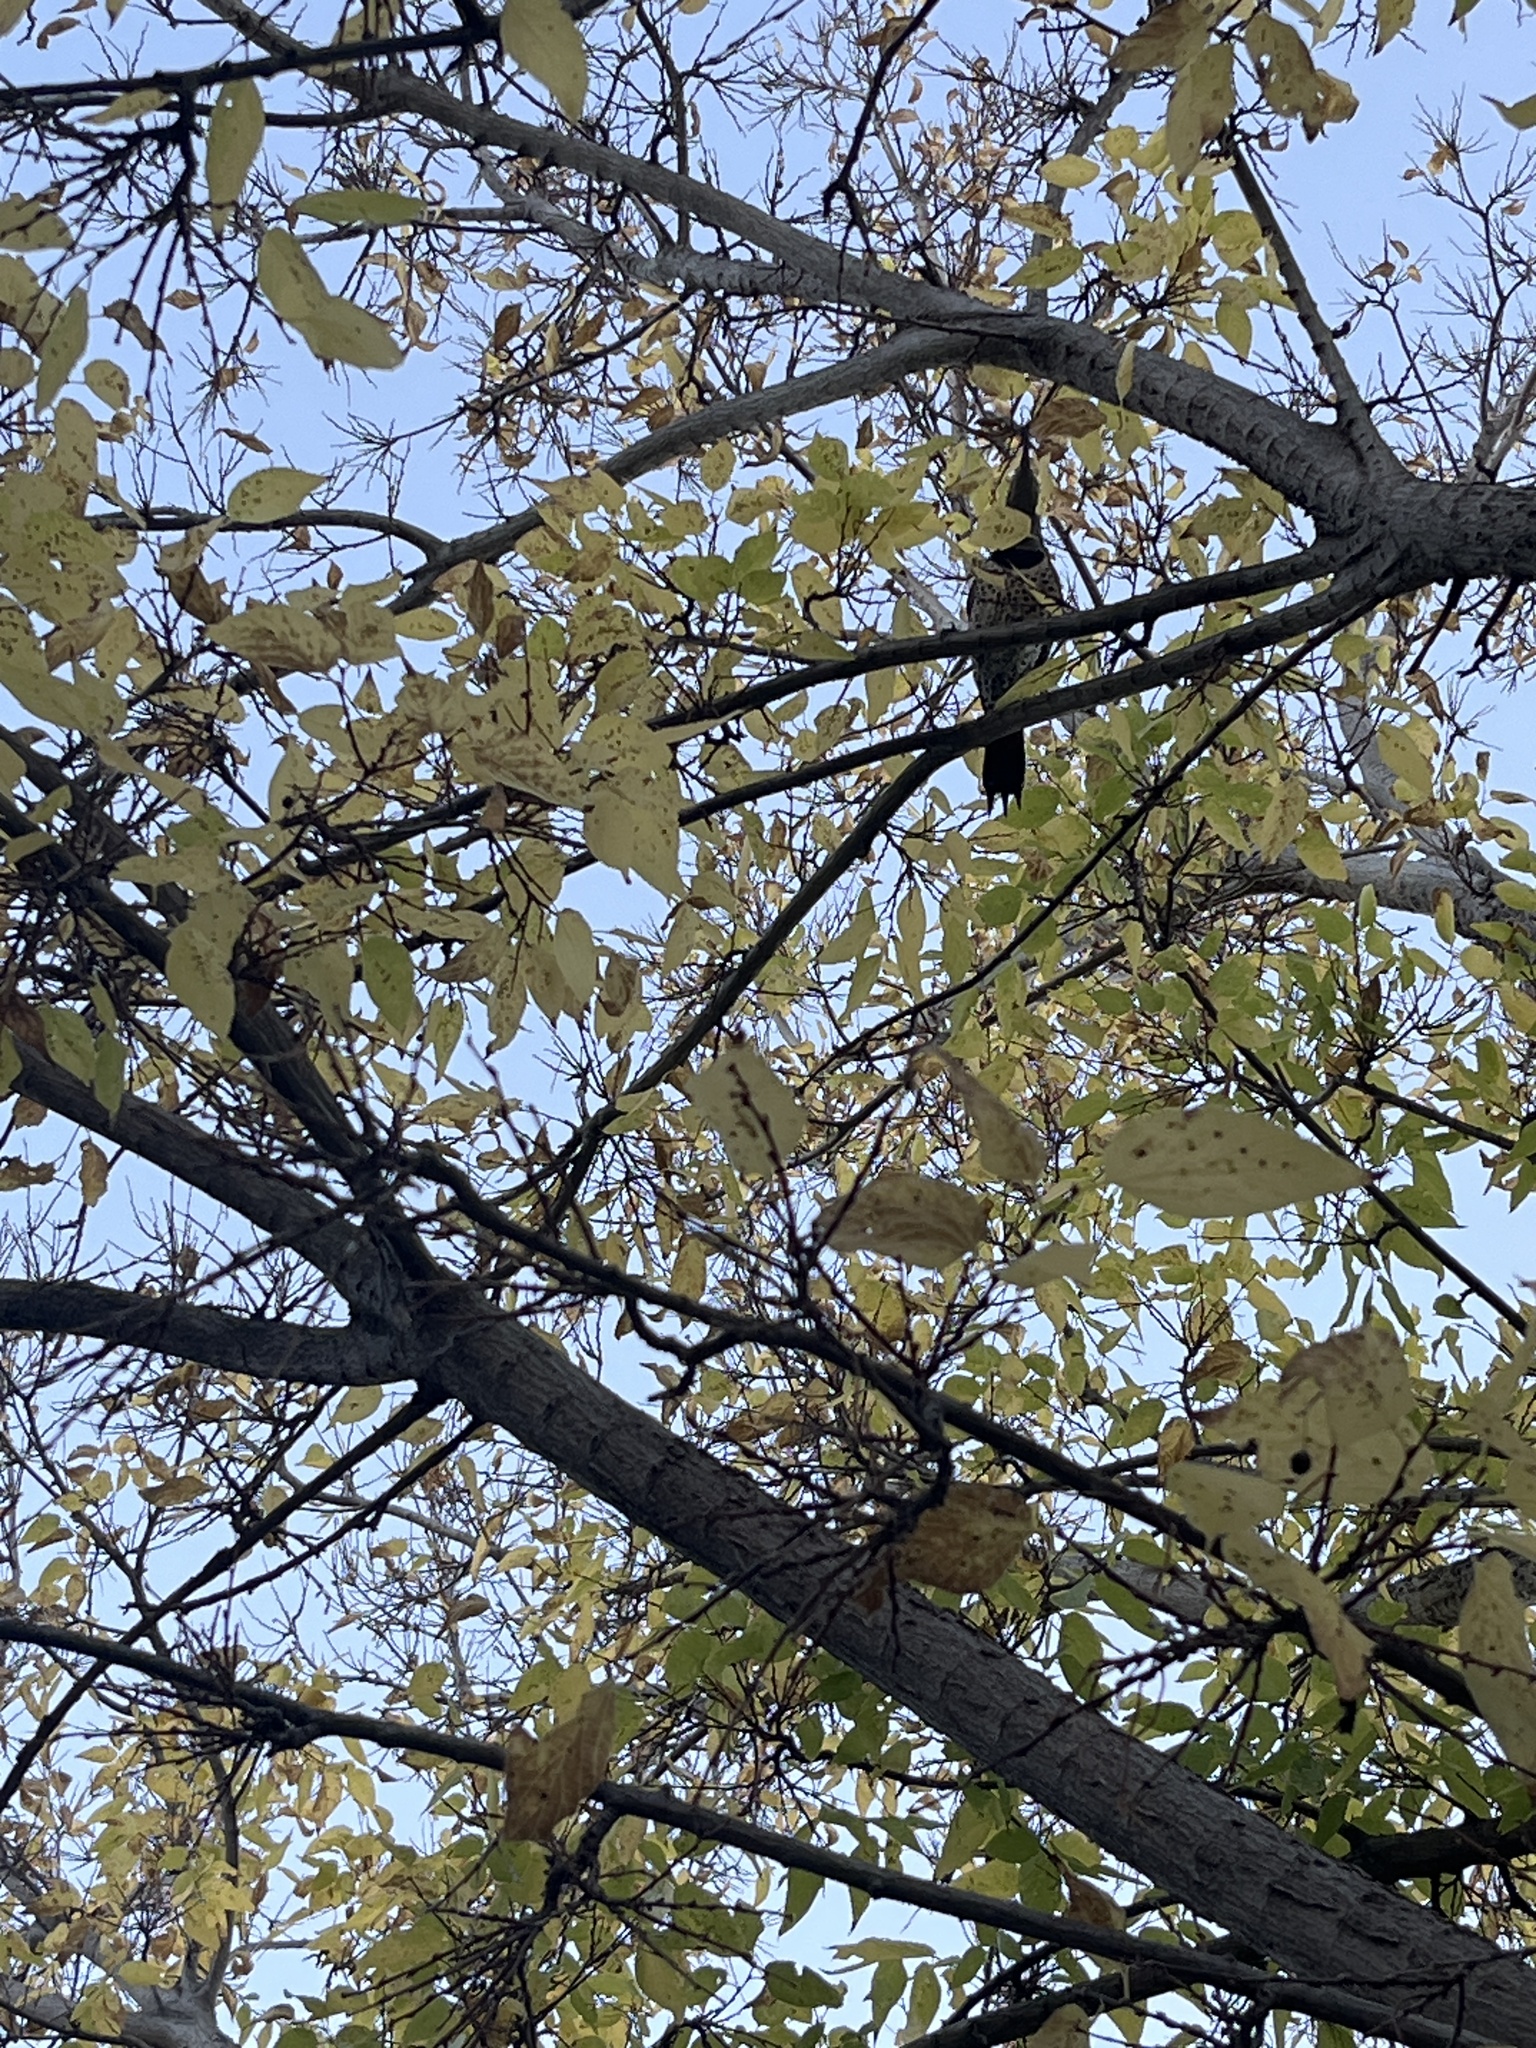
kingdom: Animalia
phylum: Chordata
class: Aves
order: Piciformes
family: Picidae
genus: Colaptes
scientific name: Colaptes auratus
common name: Northern flicker
